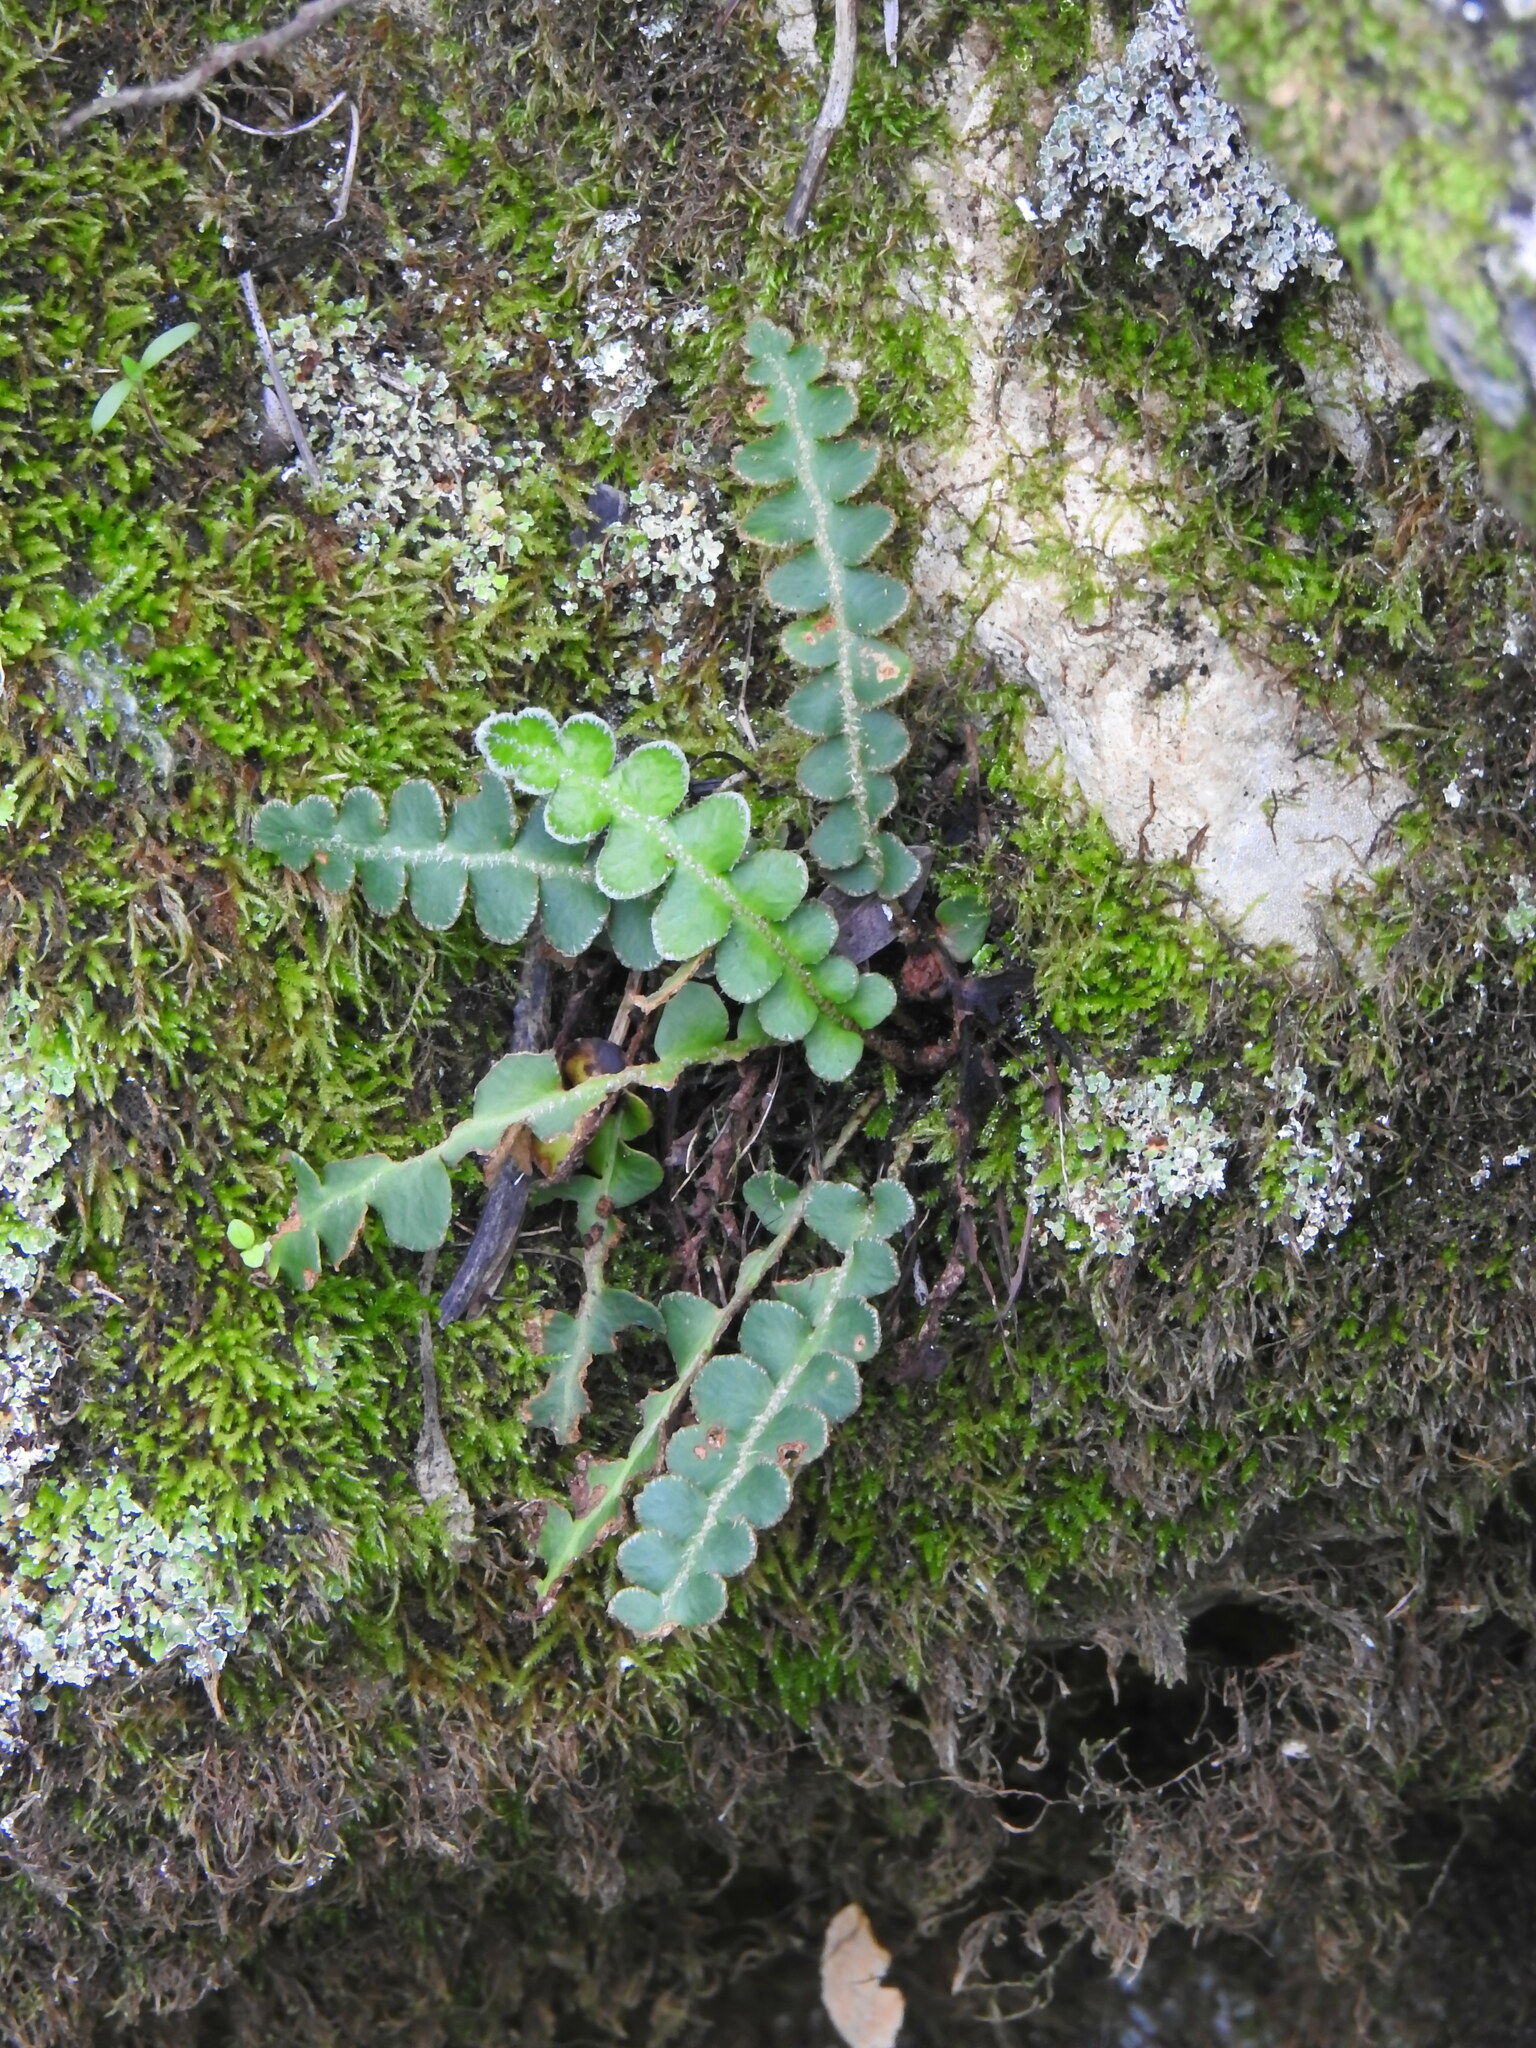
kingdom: Plantae
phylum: Tracheophyta
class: Polypodiopsida
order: Polypodiales
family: Aspleniaceae
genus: Asplenium
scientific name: Asplenium ceterach
